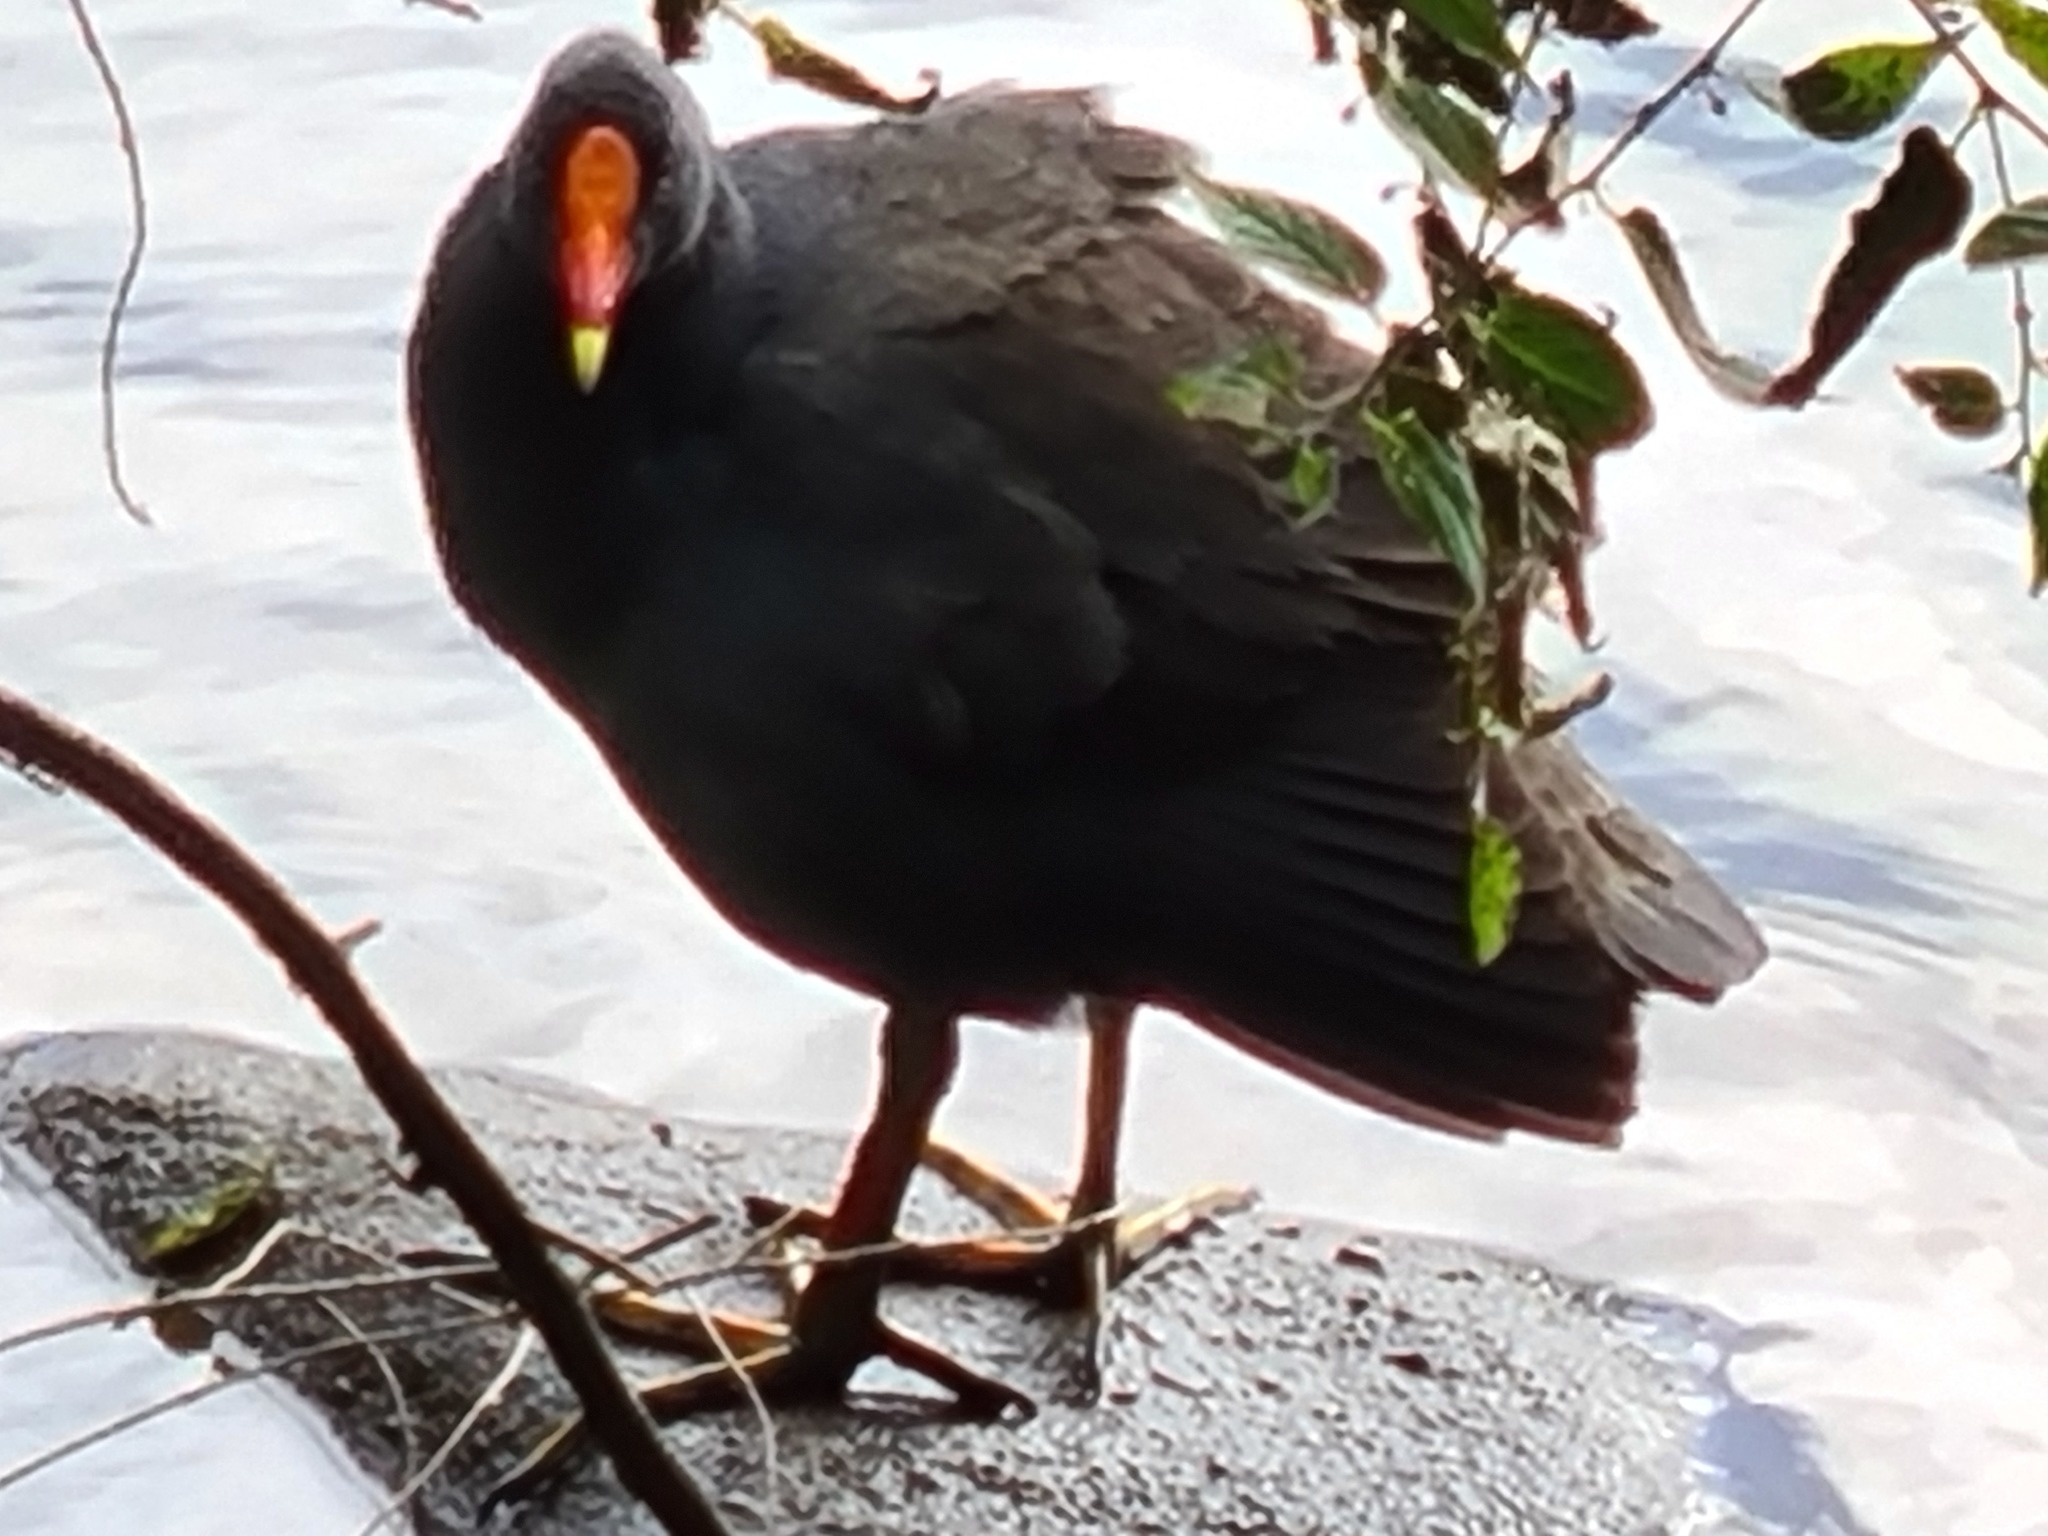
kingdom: Animalia
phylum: Chordata
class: Aves
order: Gruiformes
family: Rallidae
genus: Gallinula
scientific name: Gallinula tenebrosa
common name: Dusky moorhen
